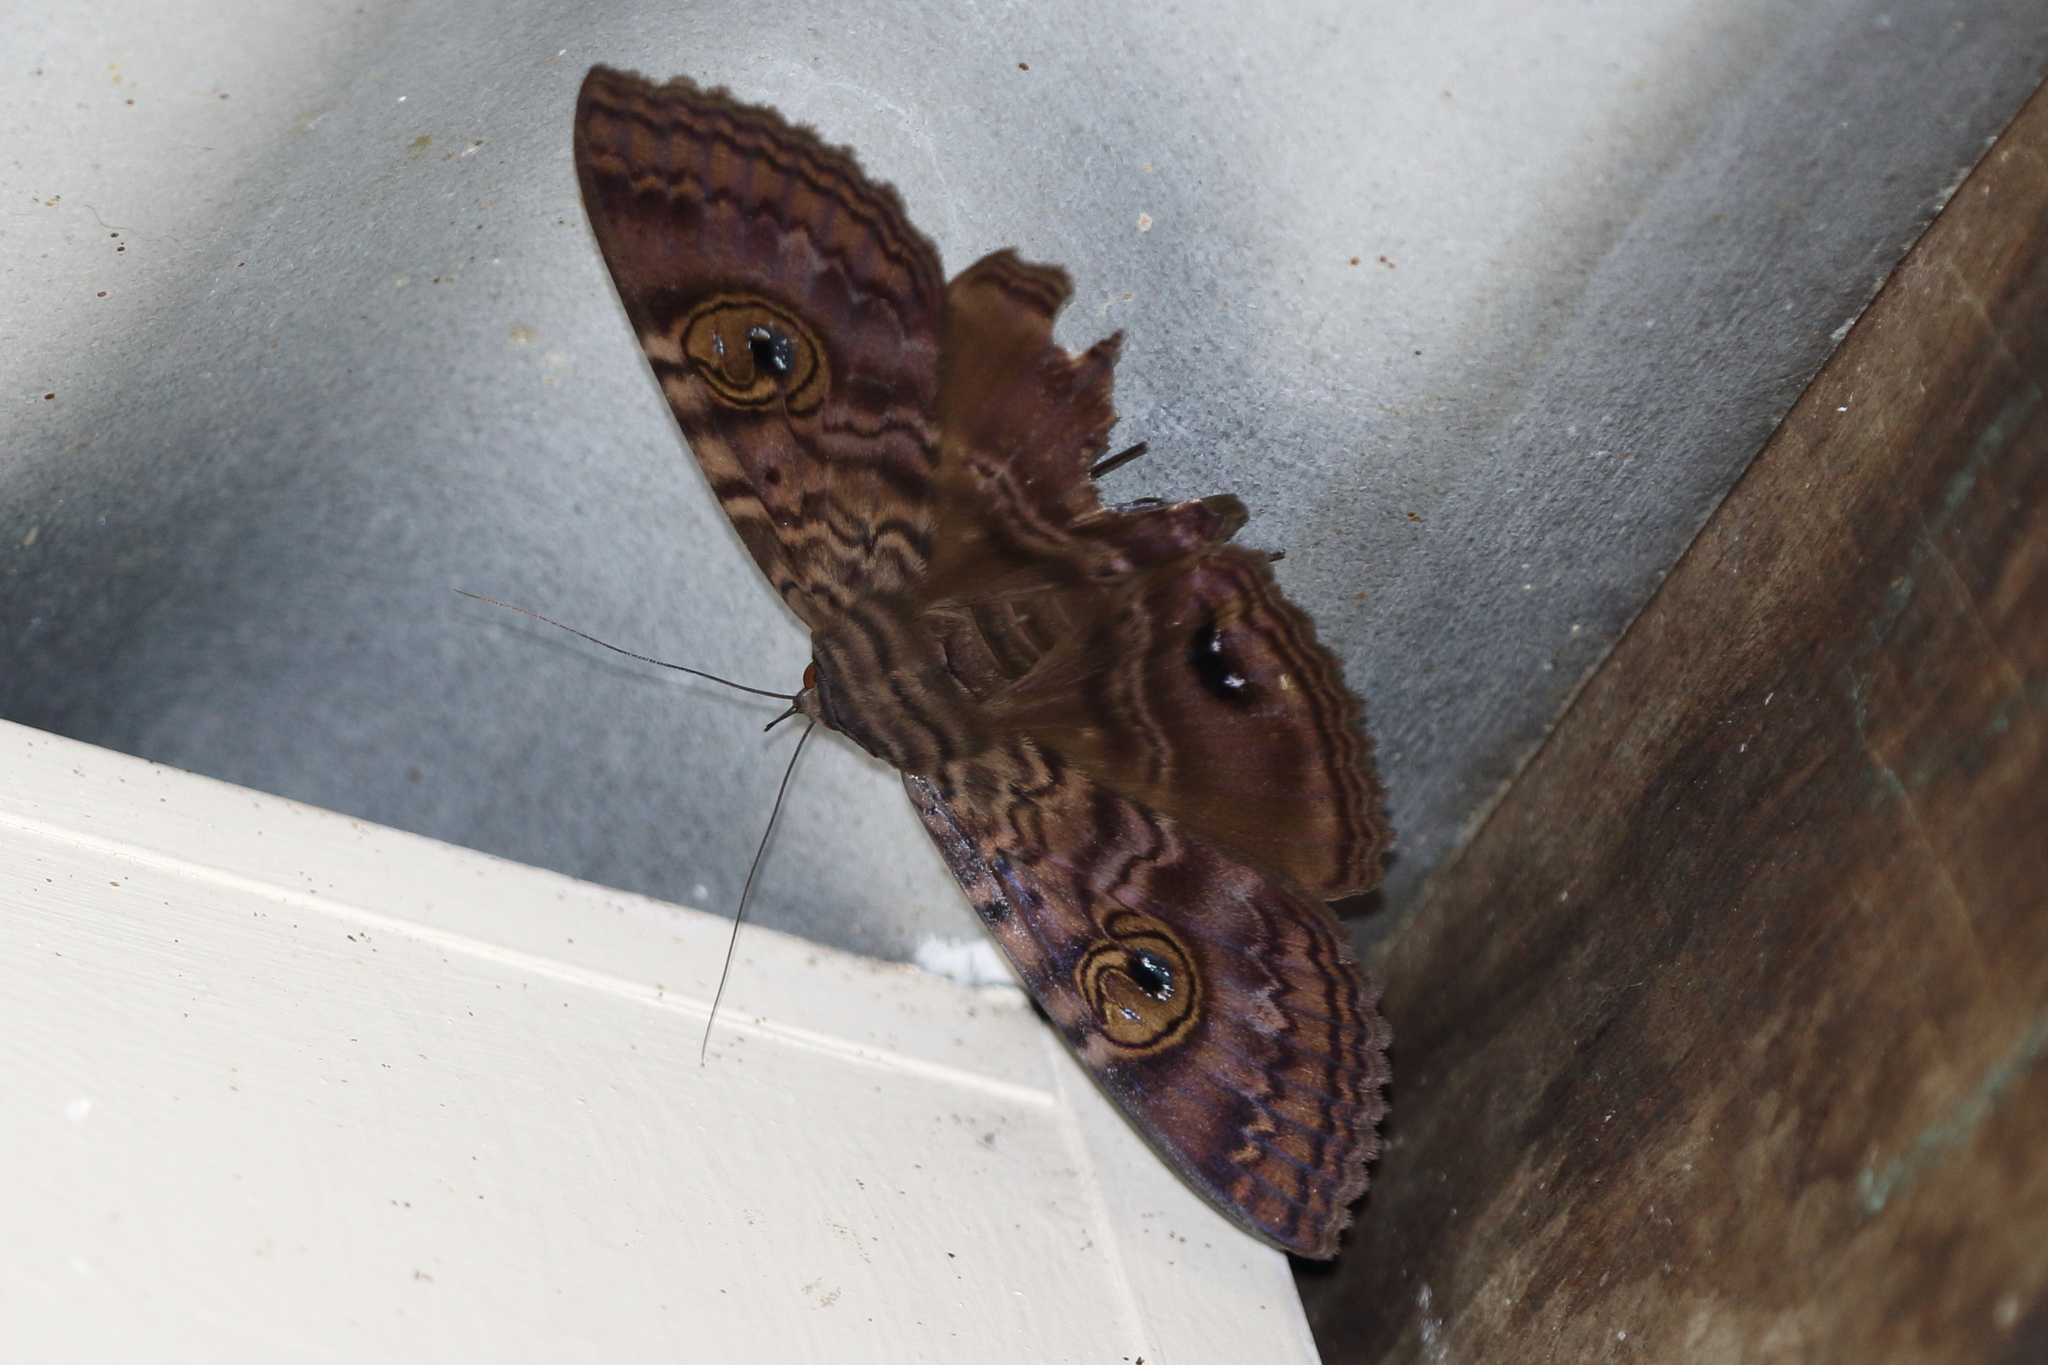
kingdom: Animalia
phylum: Arthropoda
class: Insecta
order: Lepidoptera
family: Erebidae
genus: Speiredonia
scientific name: Speiredonia spectans
